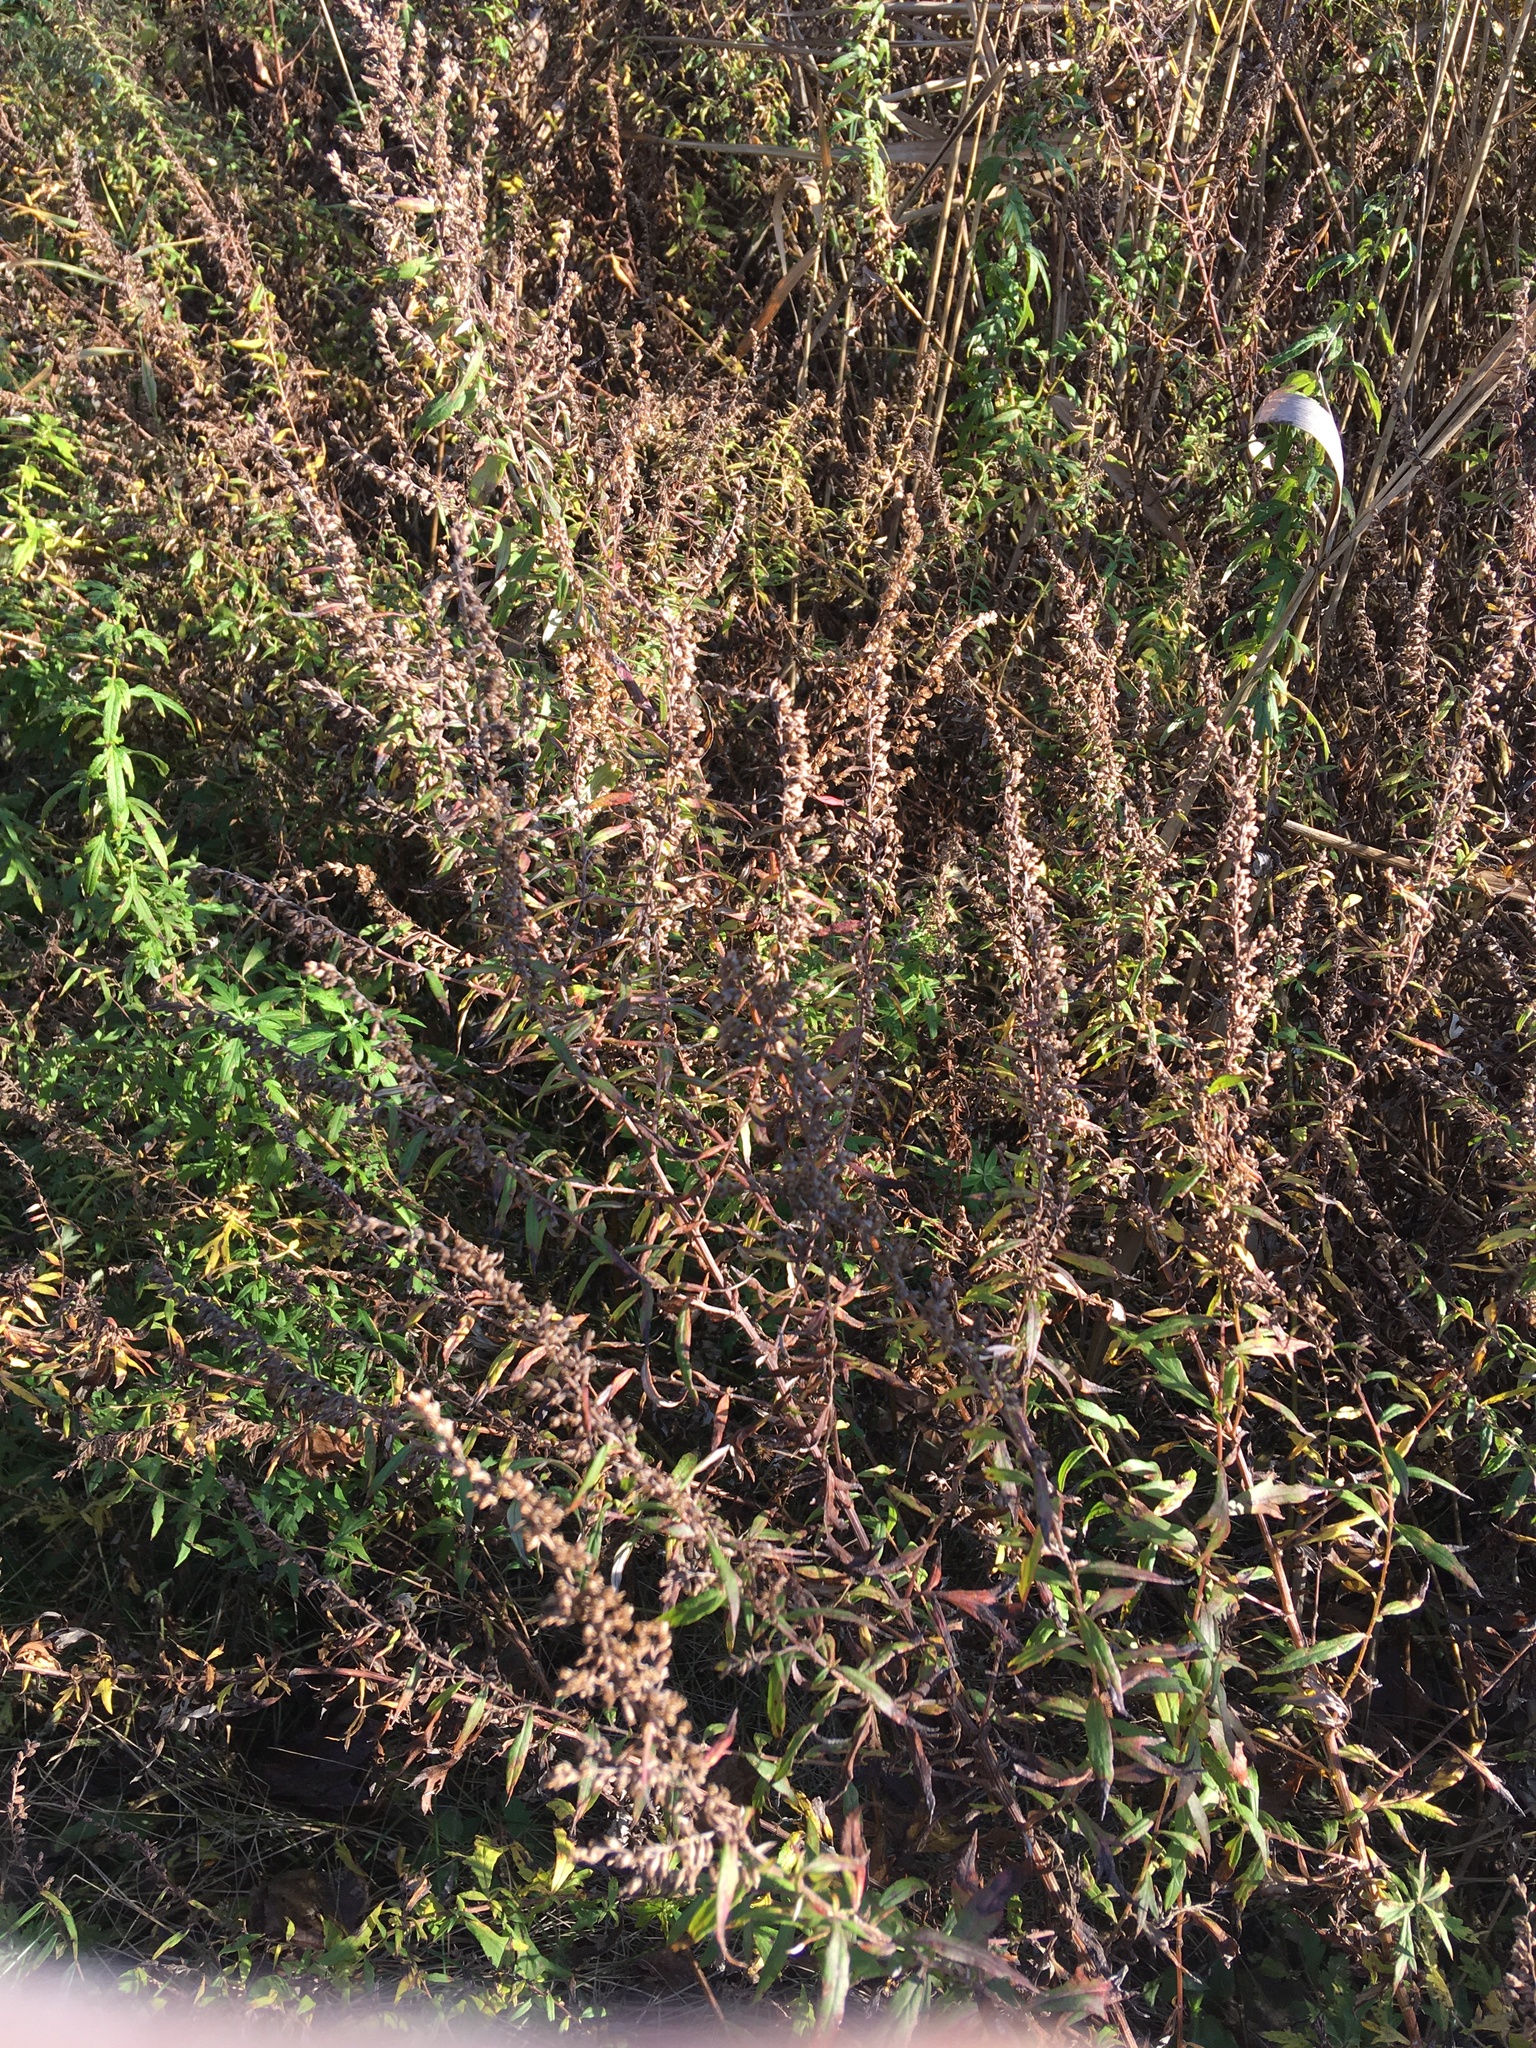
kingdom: Plantae
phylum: Tracheophyta
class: Magnoliopsida
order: Asterales
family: Asteraceae
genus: Artemisia
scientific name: Artemisia vulgaris
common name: Mugwort
